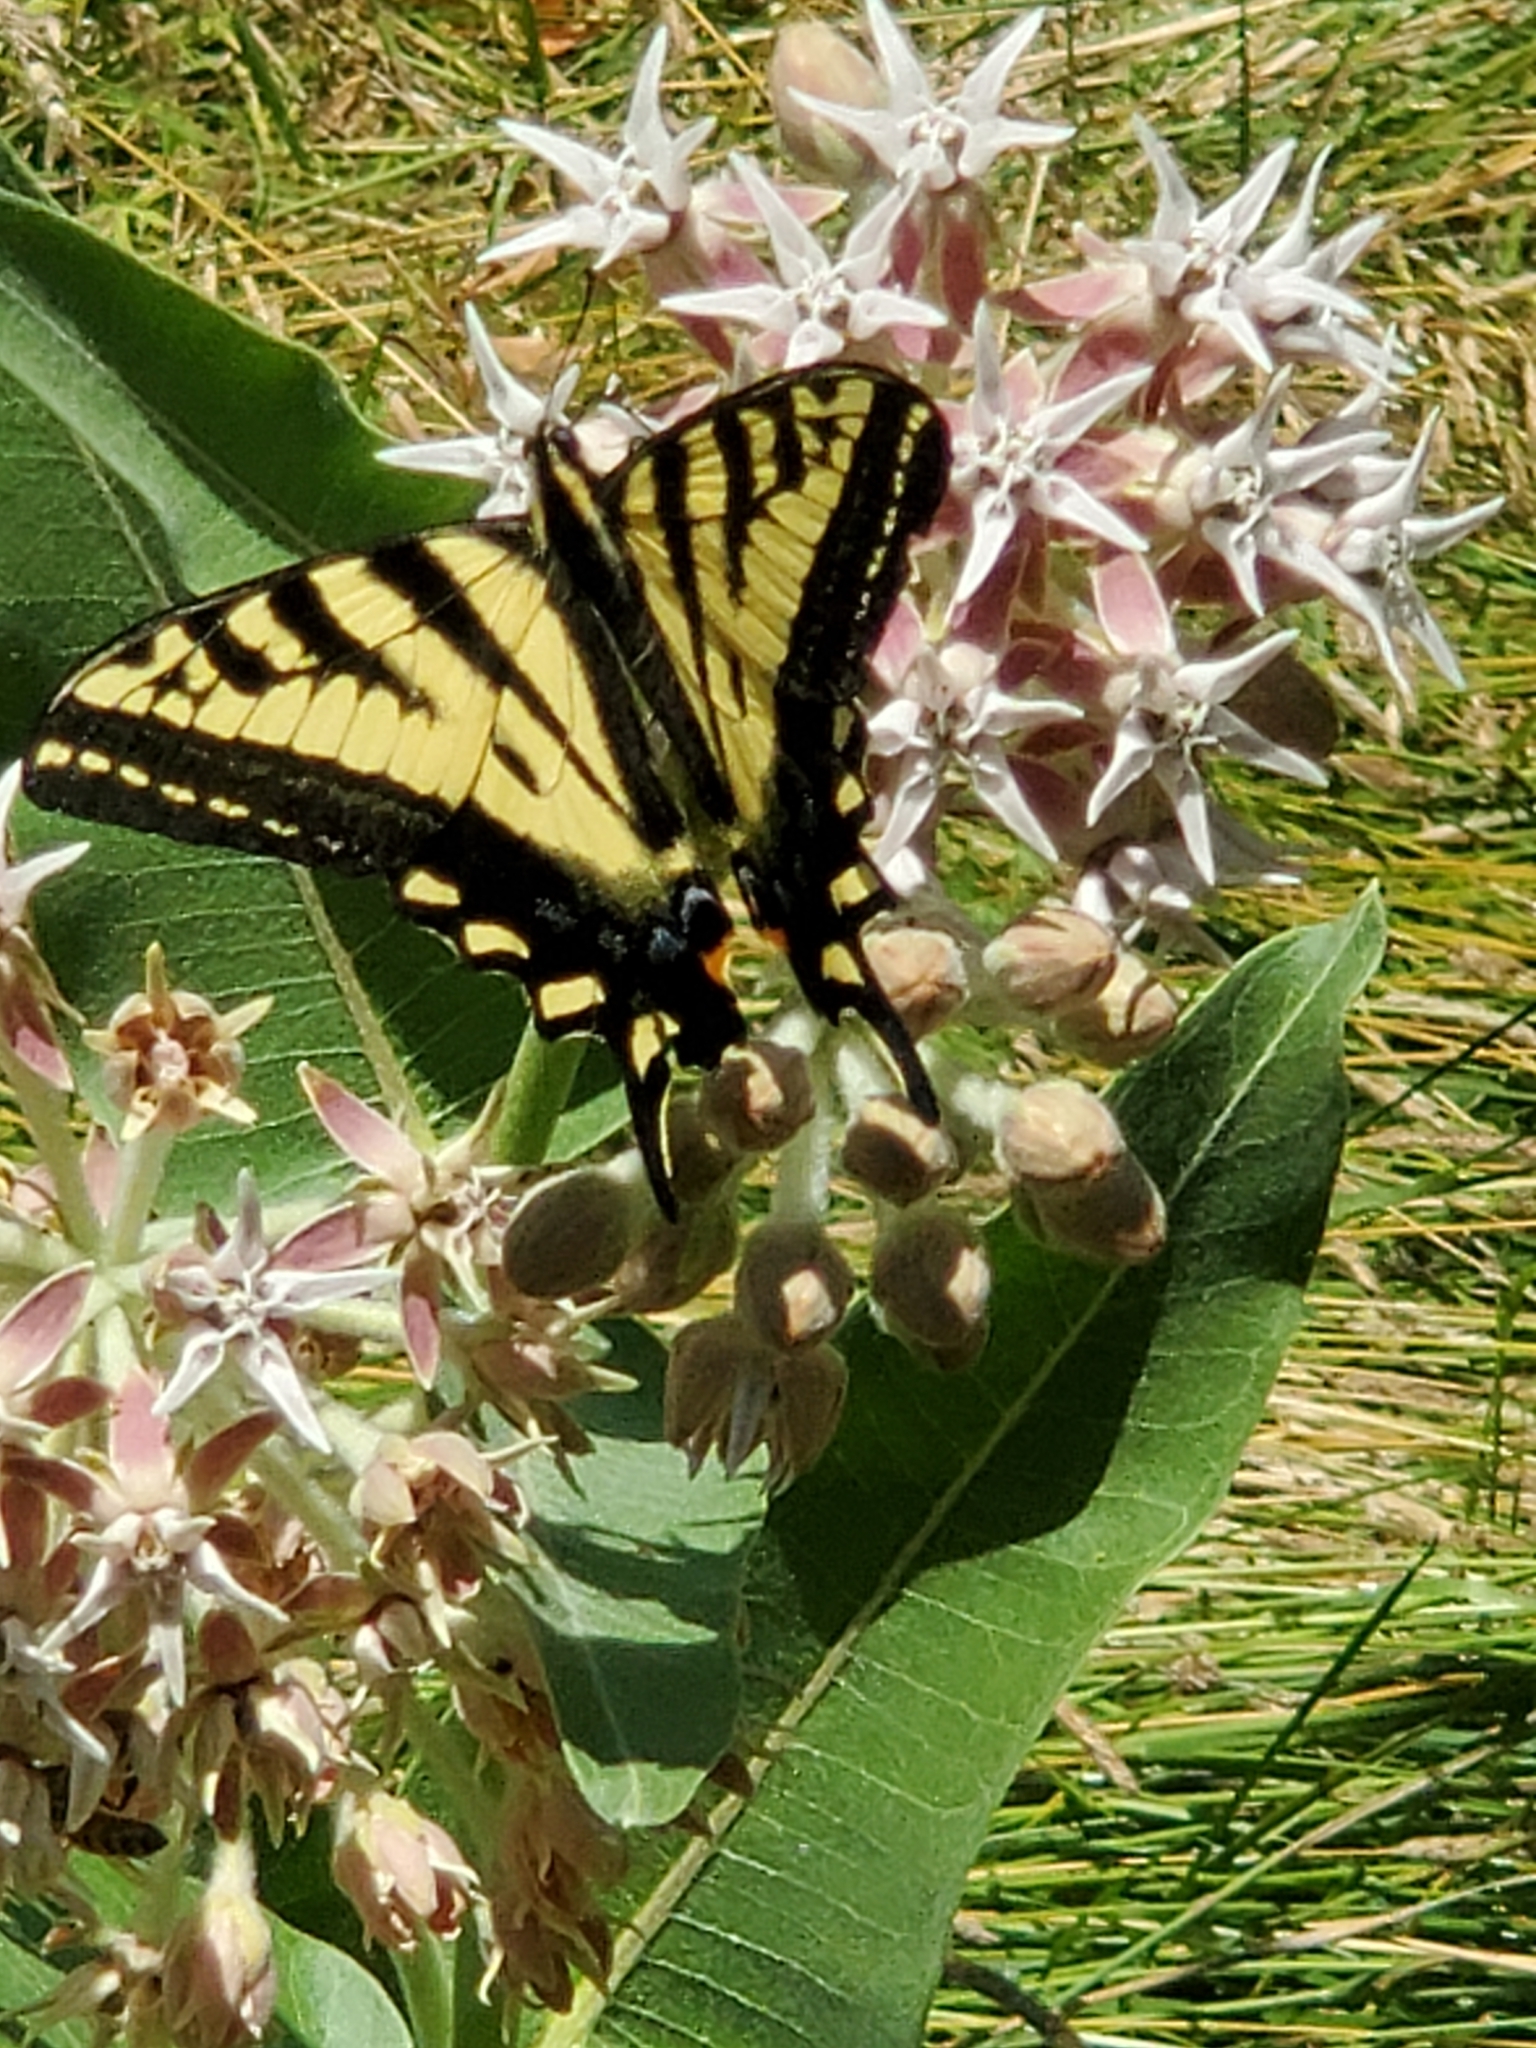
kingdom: Animalia
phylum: Arthropoda
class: Insecta
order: Lepidoptera
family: Papilionidae
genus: Papilio
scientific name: Papilio rutulus
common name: Western tiger swallowtail
